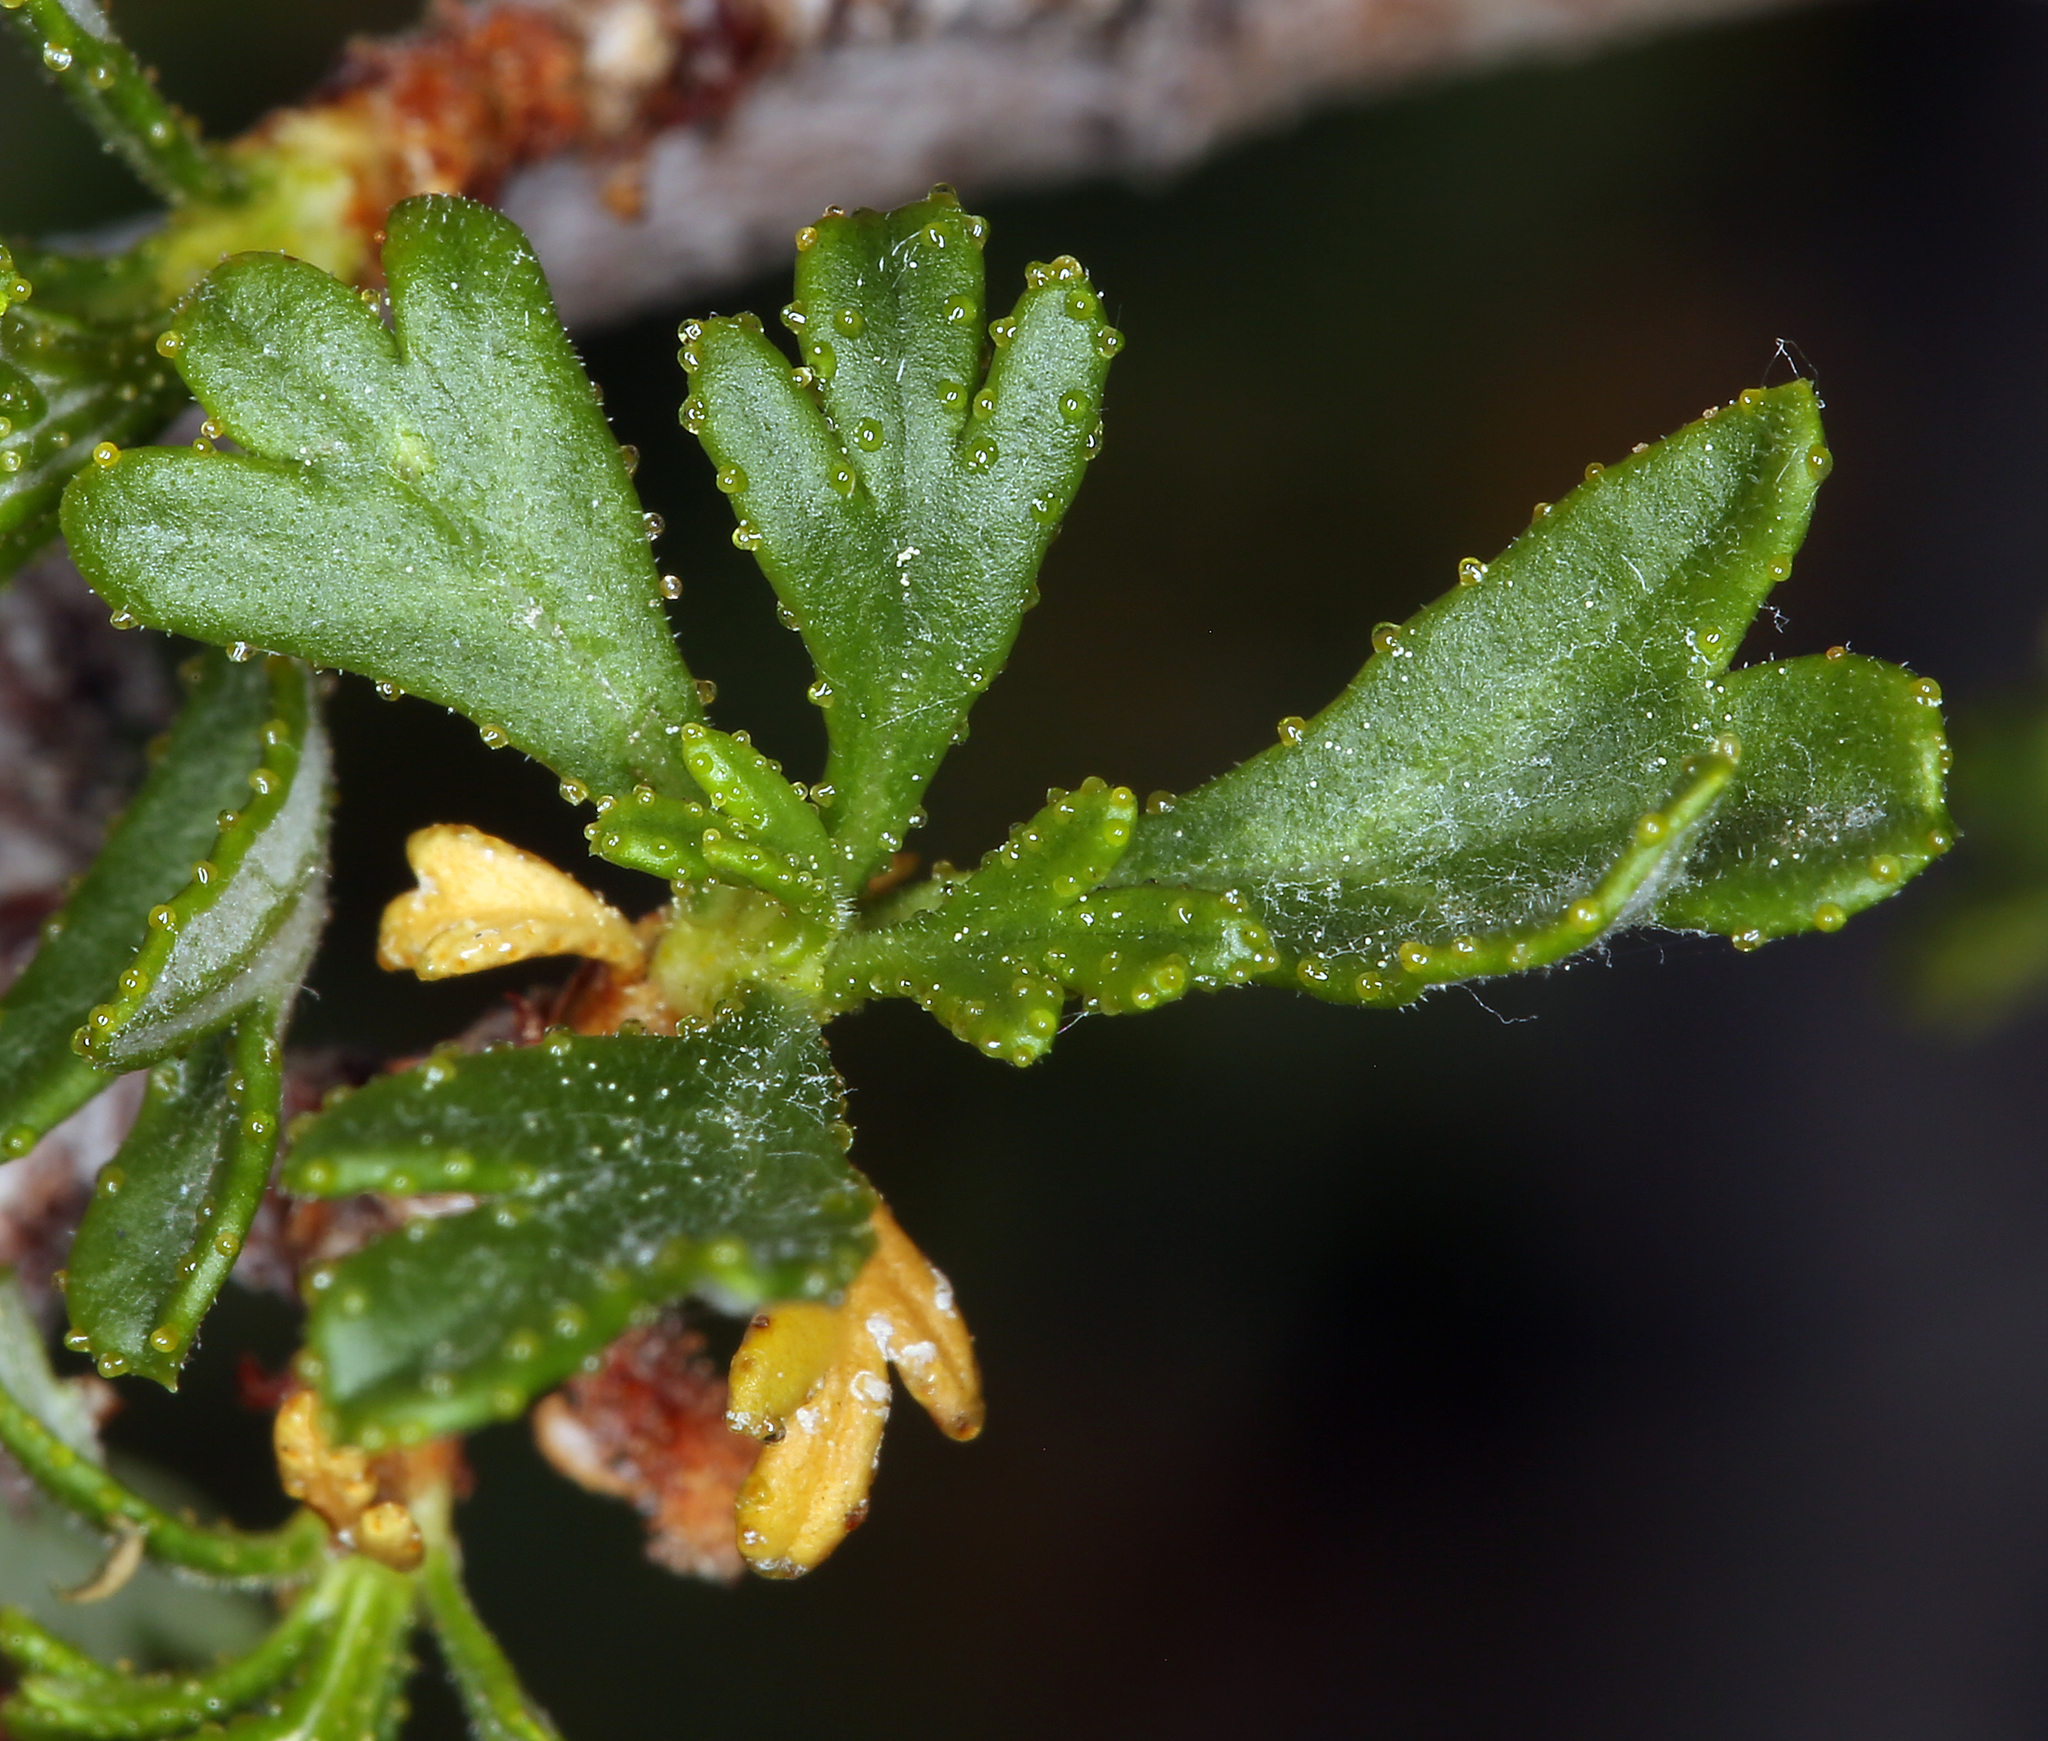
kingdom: Plantae
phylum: Tracheophyta
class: Magnoliopsida
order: Rosales
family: Rosaceae
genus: Purshia
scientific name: Purshia tridentata
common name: Antelope bitterbrush
